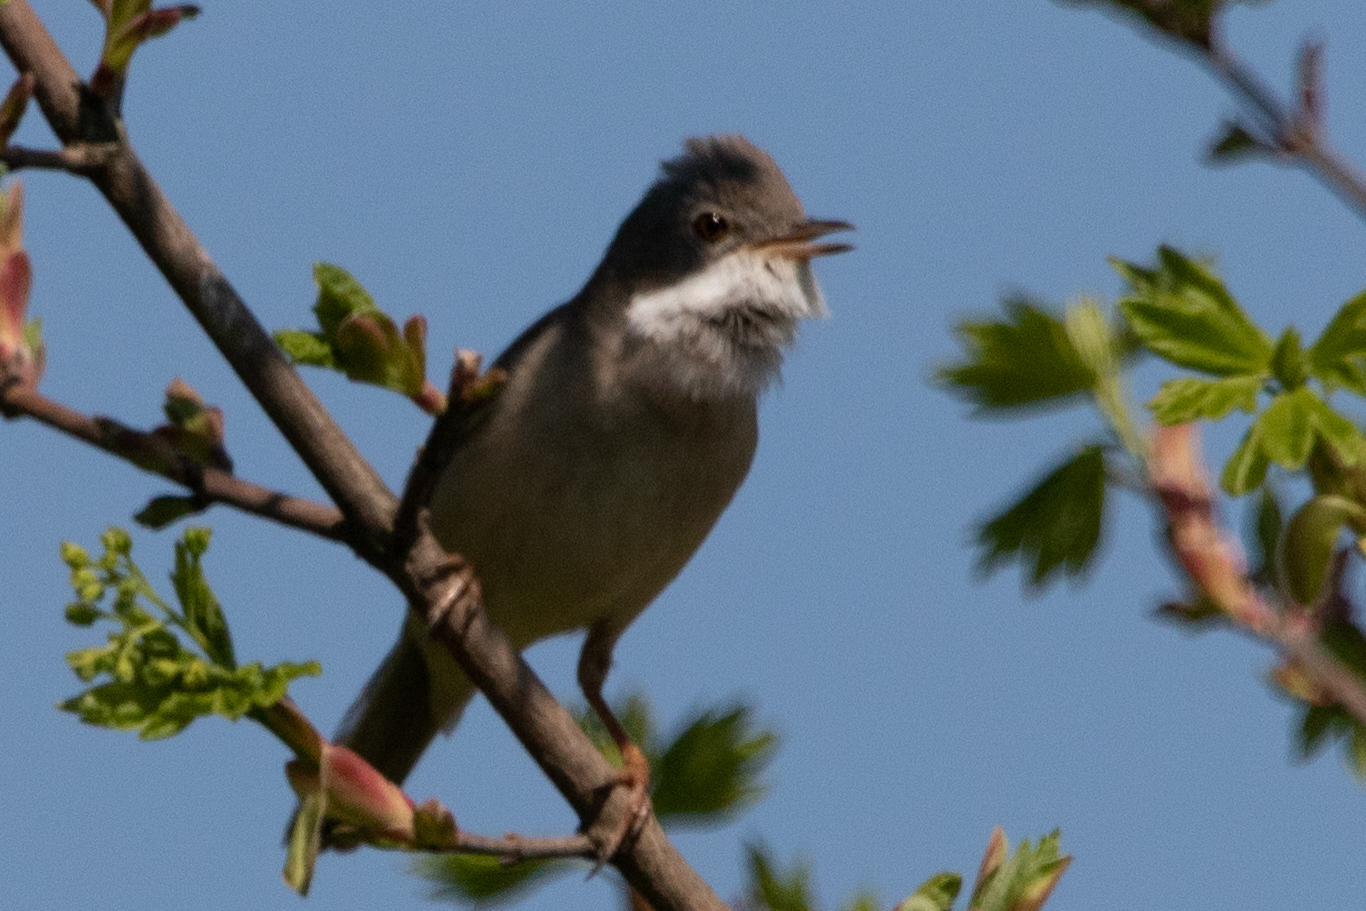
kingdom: Animalia
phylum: Chordata
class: Aves
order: Passeriformes
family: Sylviidae
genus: Sylvia
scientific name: Sylvia communis
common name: Common whitethroat
